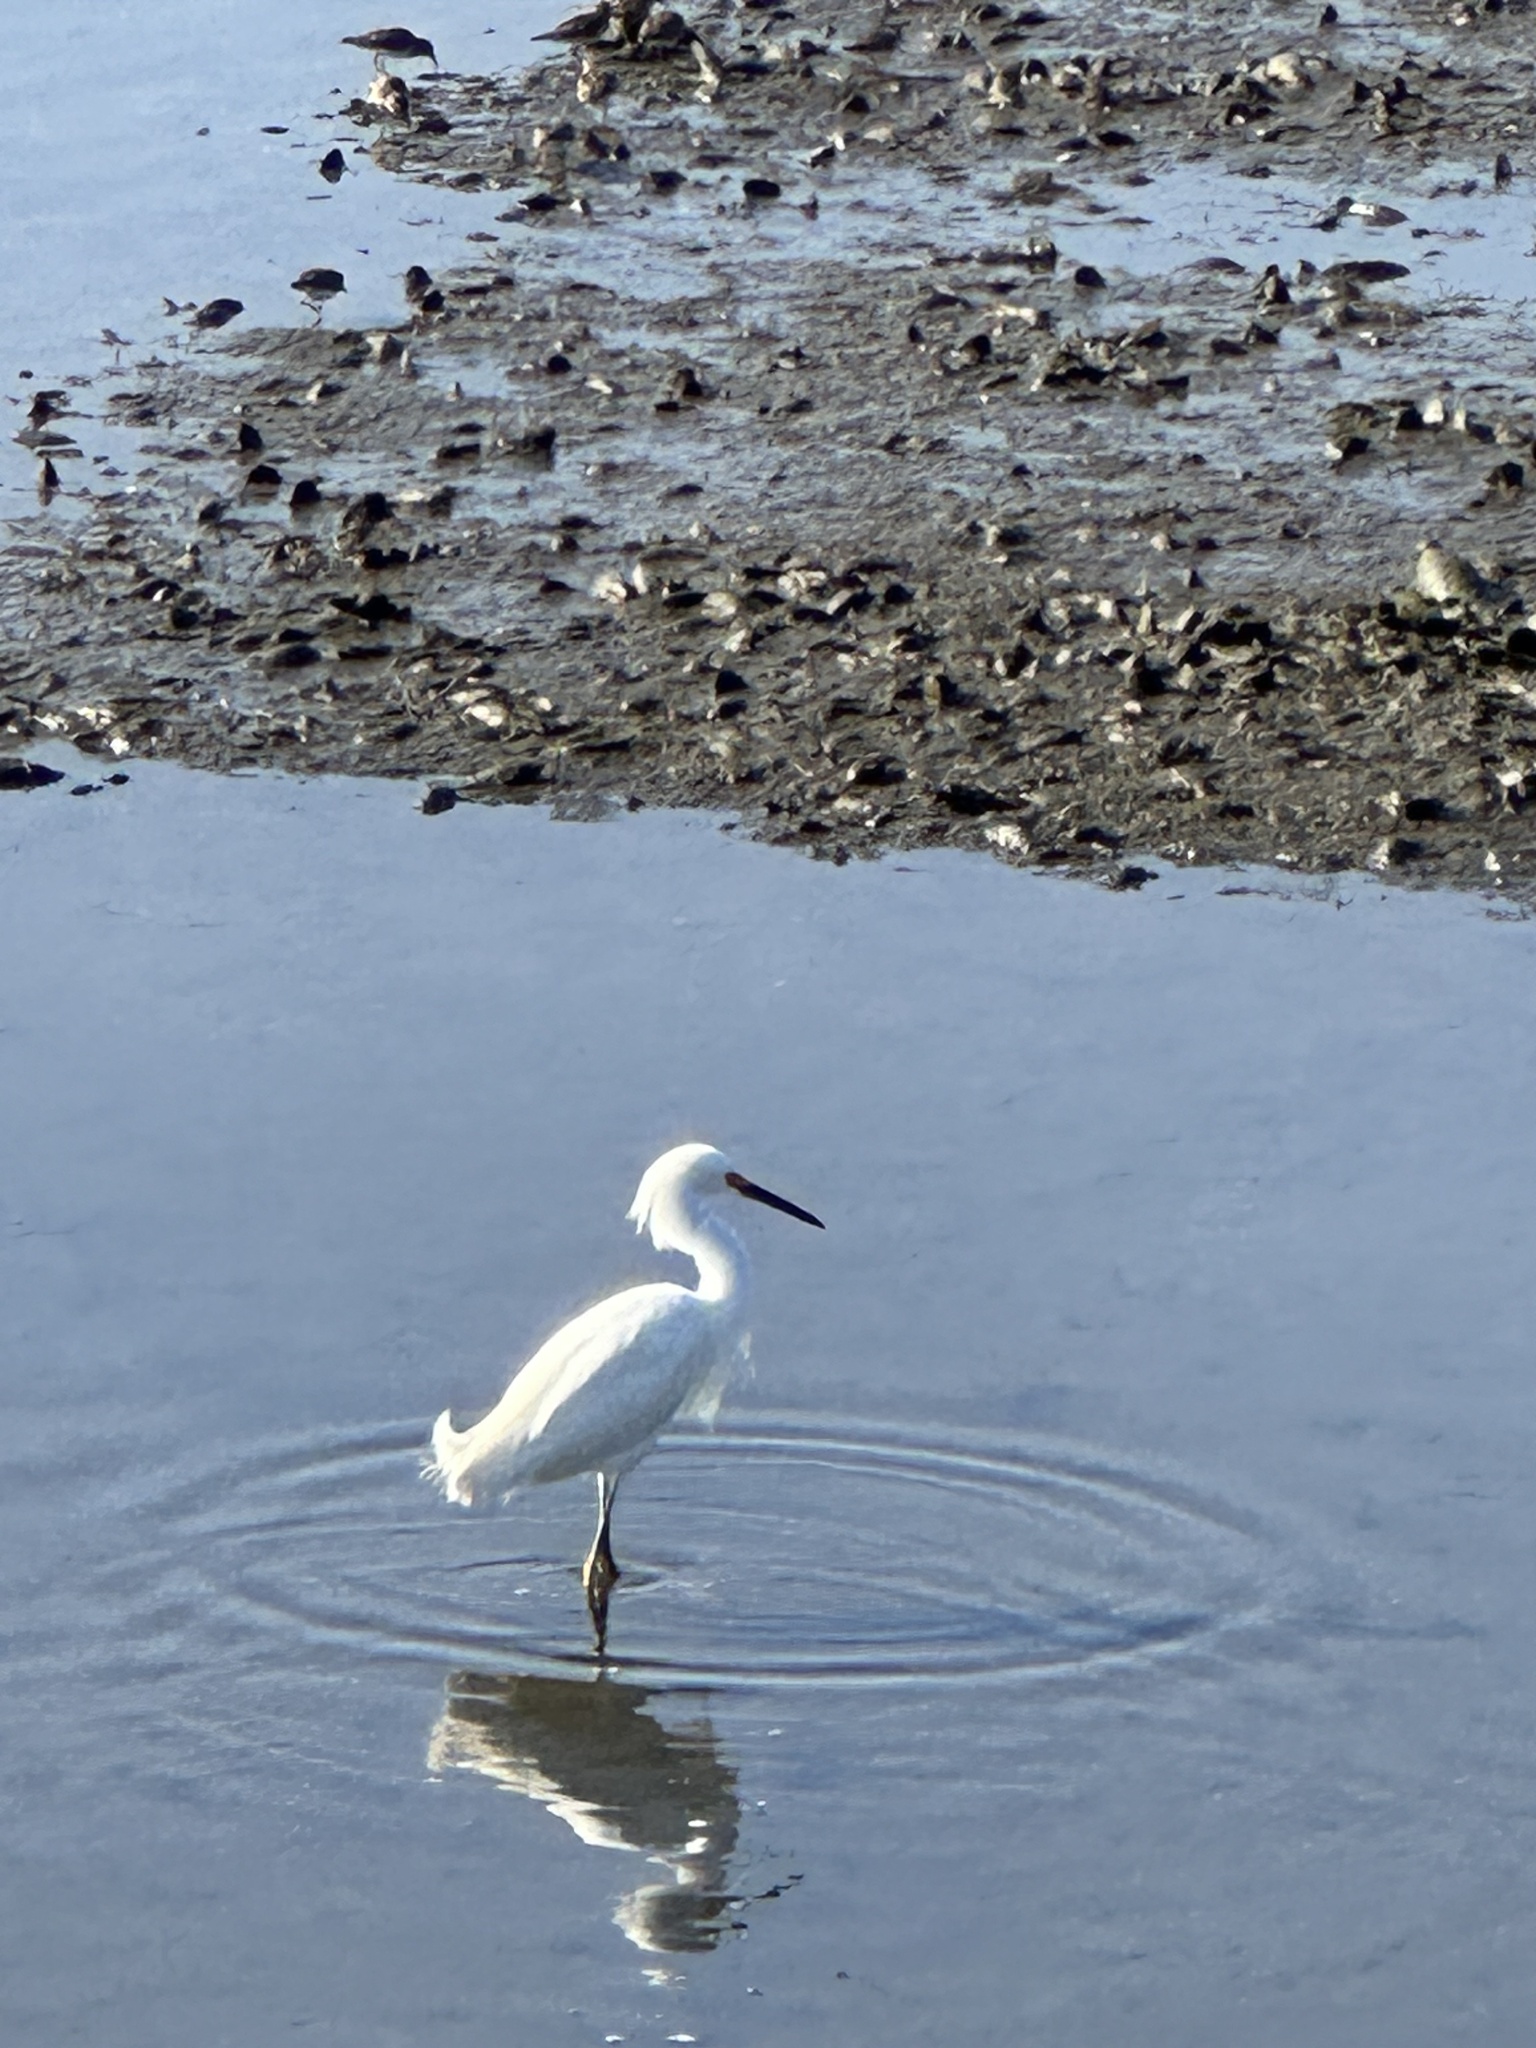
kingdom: Animalia
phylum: Chordata
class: Aves
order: Pelecaniformes
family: Ardeidae
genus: Egretta
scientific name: Egretta thula
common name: Snowy egret
